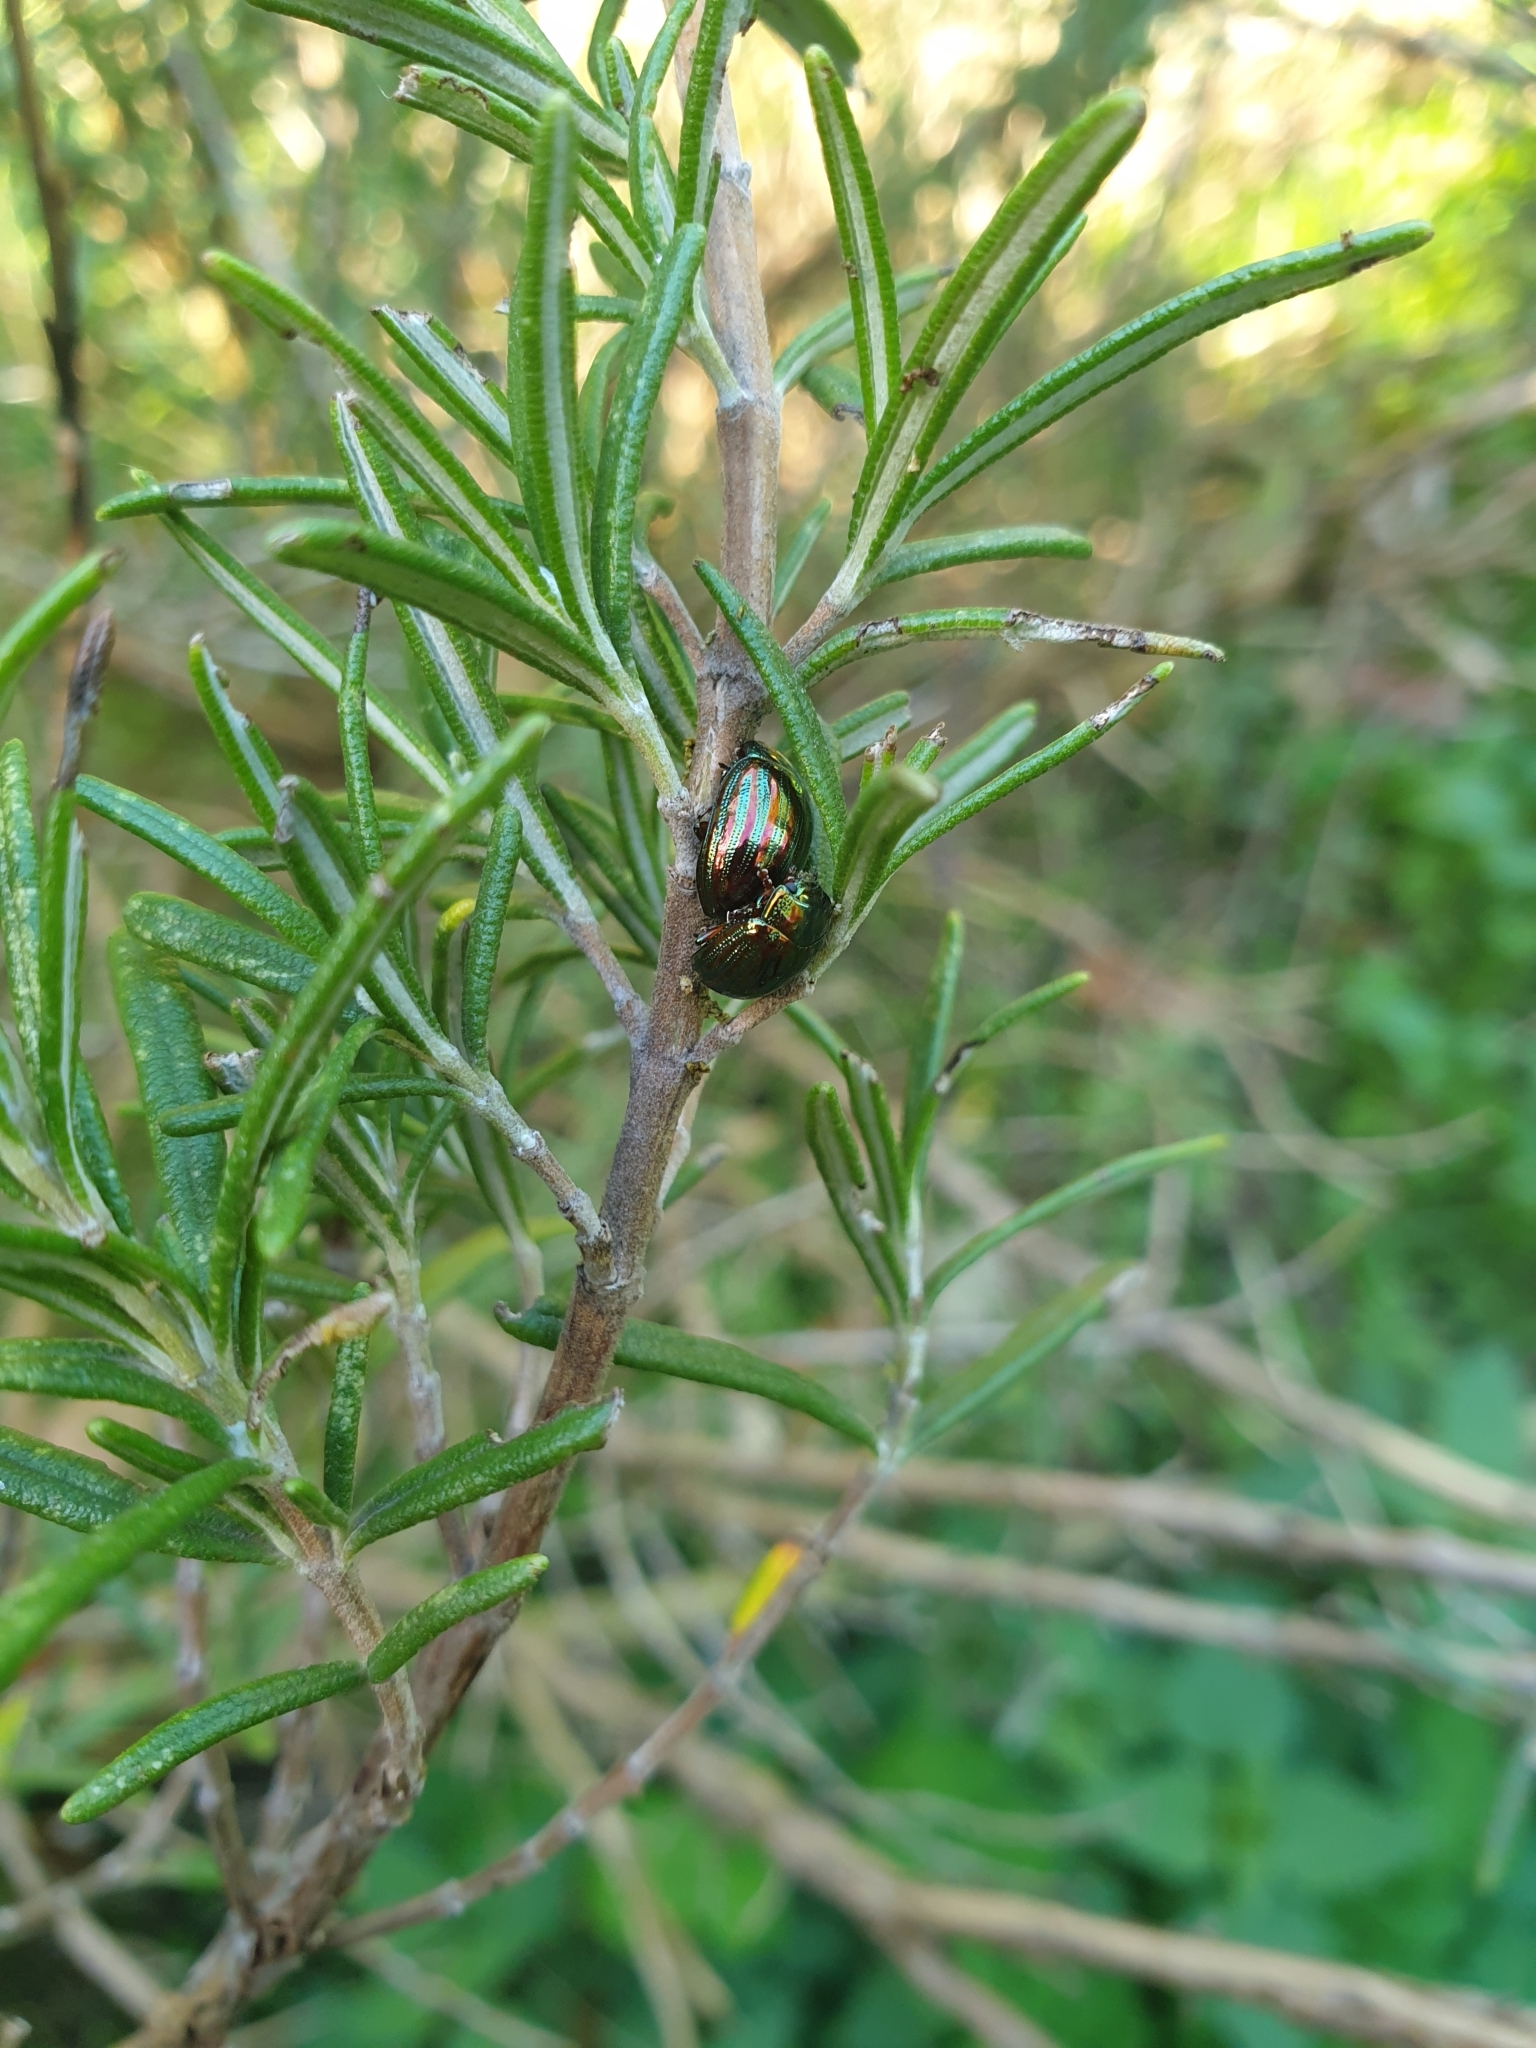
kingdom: Animalia
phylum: Arthropoda
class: Insecta
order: Coleoptera
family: Chrysomelidae
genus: Chrysolina
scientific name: Chrysolina americana
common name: Rosemary beetle
